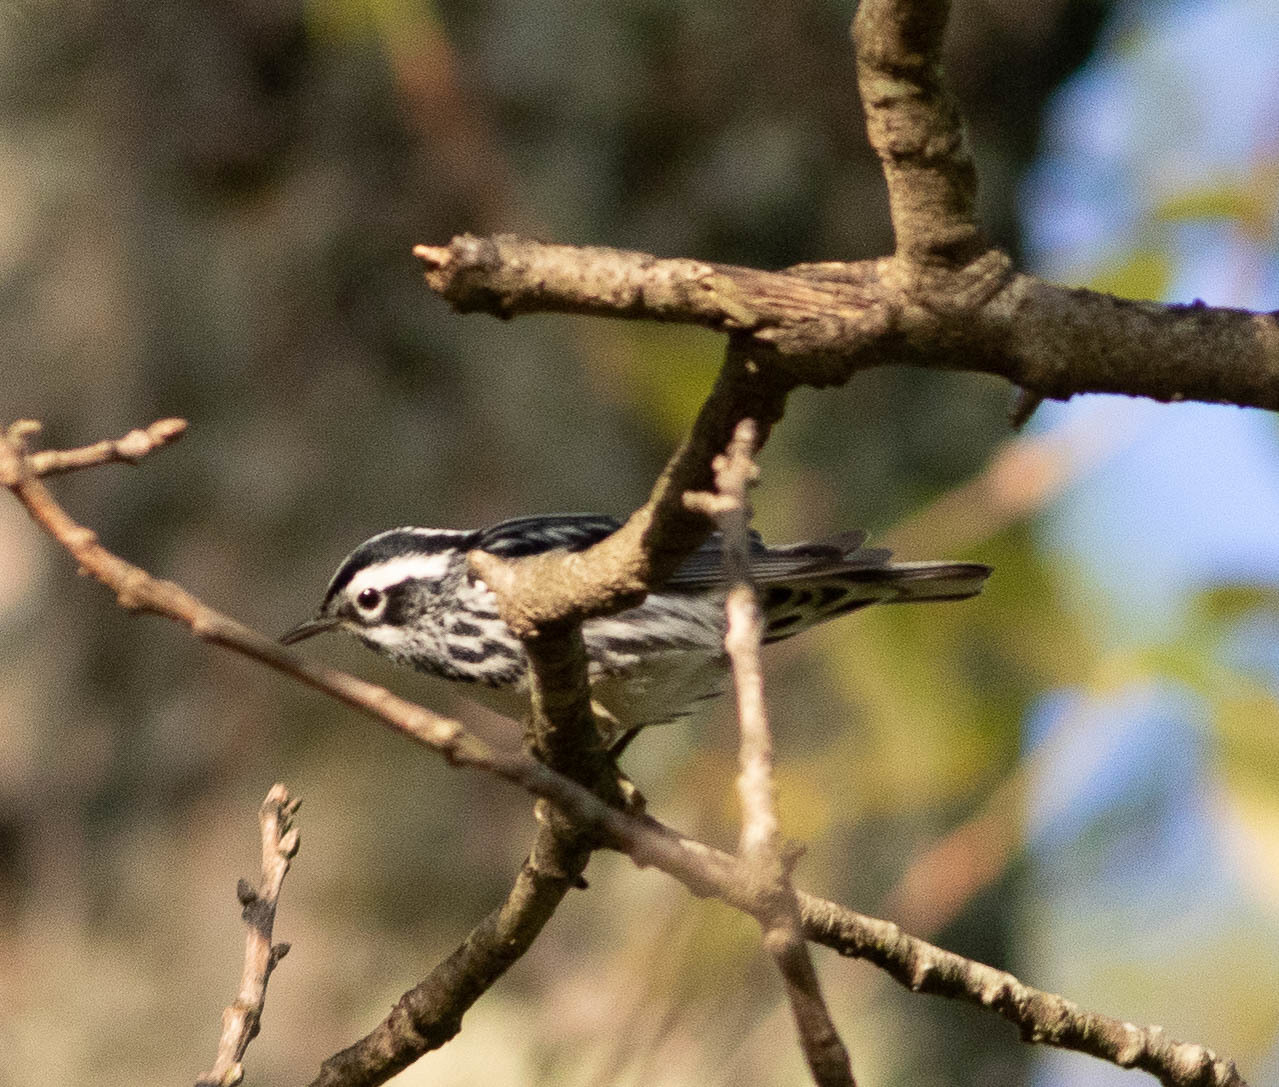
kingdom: Animalia
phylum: Chordata
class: Aves
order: Passeriformes
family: Parulidae
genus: Mniotilta
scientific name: Mniotilta varia
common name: Black-and-white warbler
